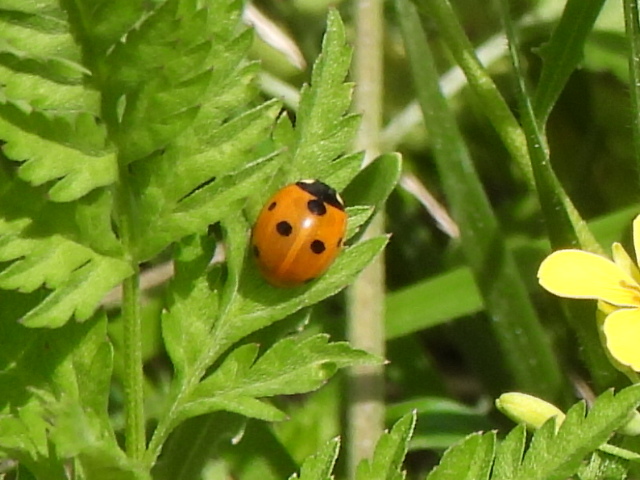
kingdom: Animalia
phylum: Arthropoda
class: Insecta
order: Coleoptera
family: Coccinellidae
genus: Coccinella
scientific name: Coccinella septempunctata
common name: Sevenspotted lady beetle
